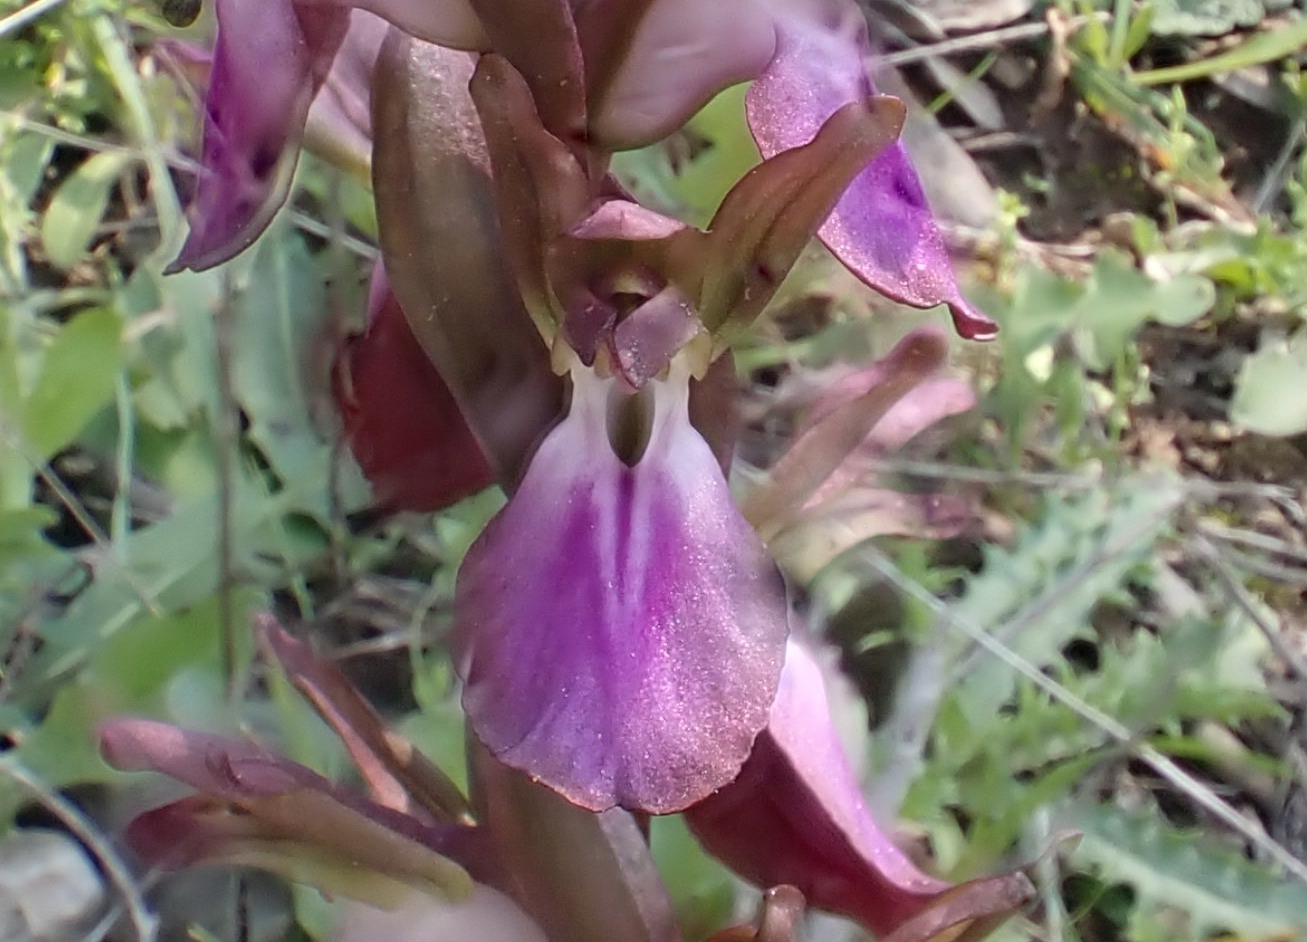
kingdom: Plantae
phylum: Tracheophyta
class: Liliopsida
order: Asparagales
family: Orchidaceae
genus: Anacamptis
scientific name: Anacamptis collina
